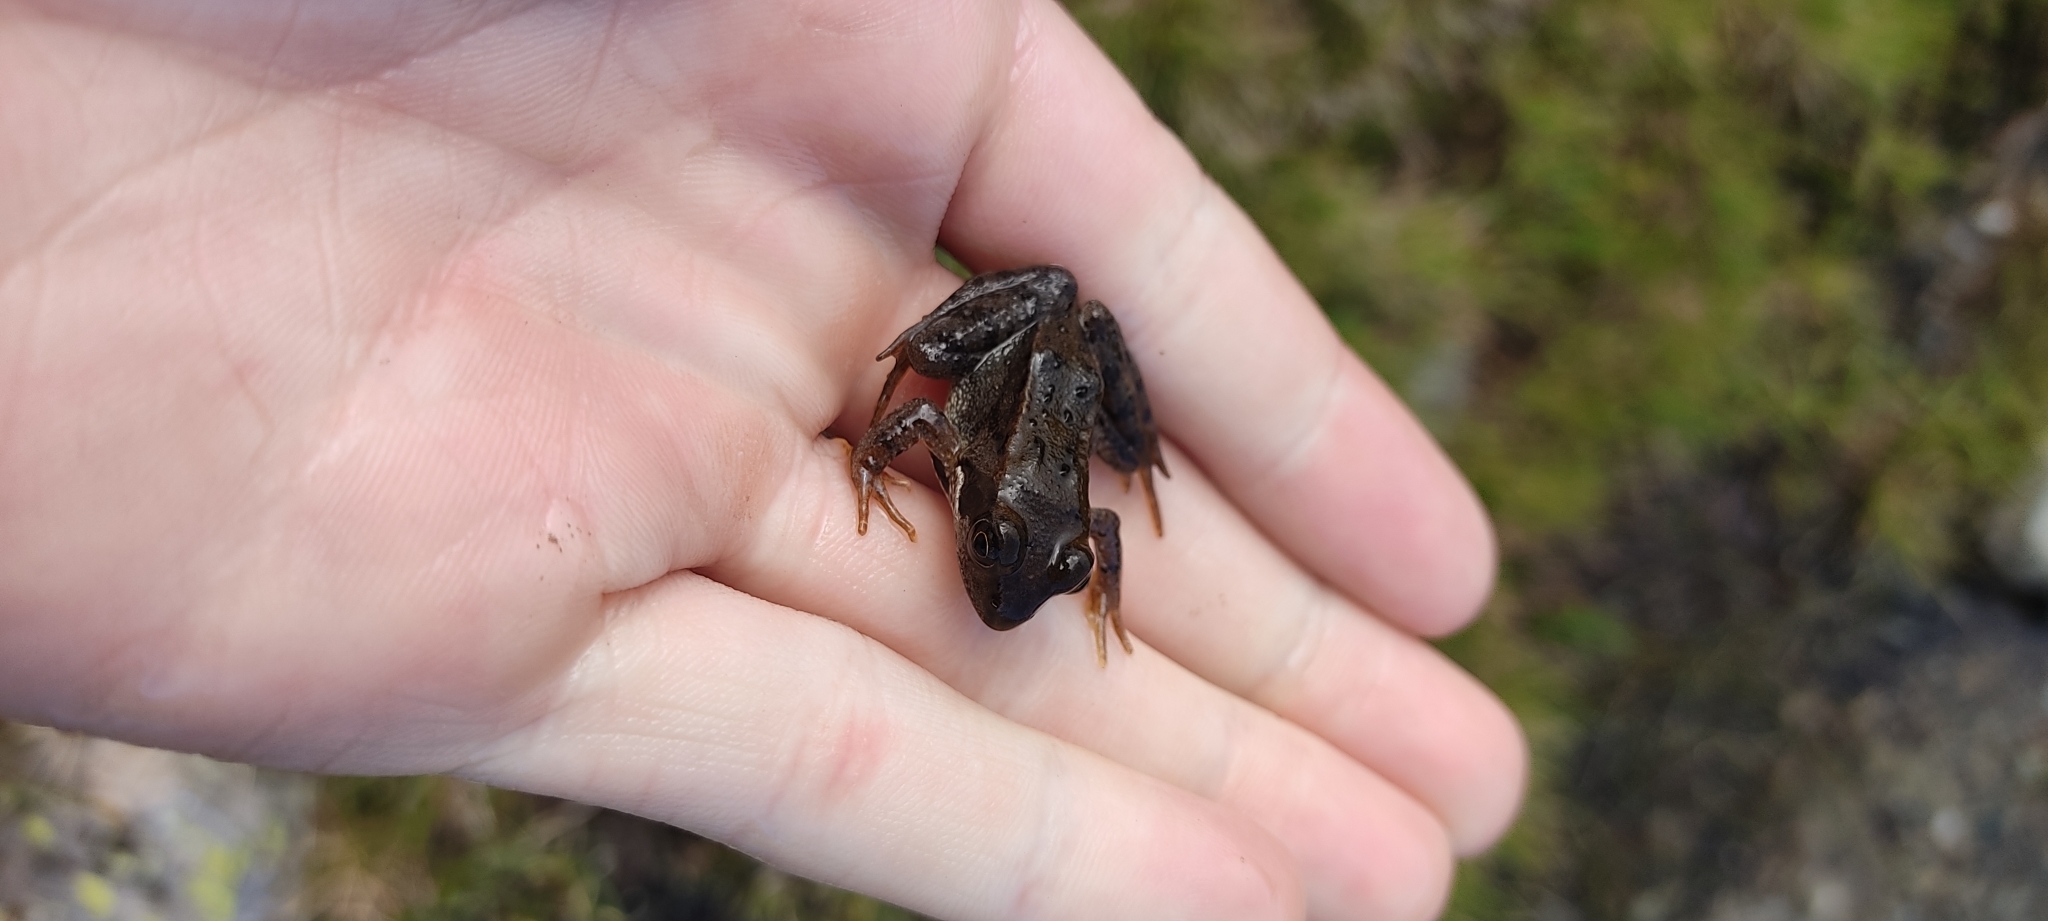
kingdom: Animalia
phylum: Chordata
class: Amphibia
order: Anura
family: Ranidae
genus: Rana
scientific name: Rana temporaria
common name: Common frog
